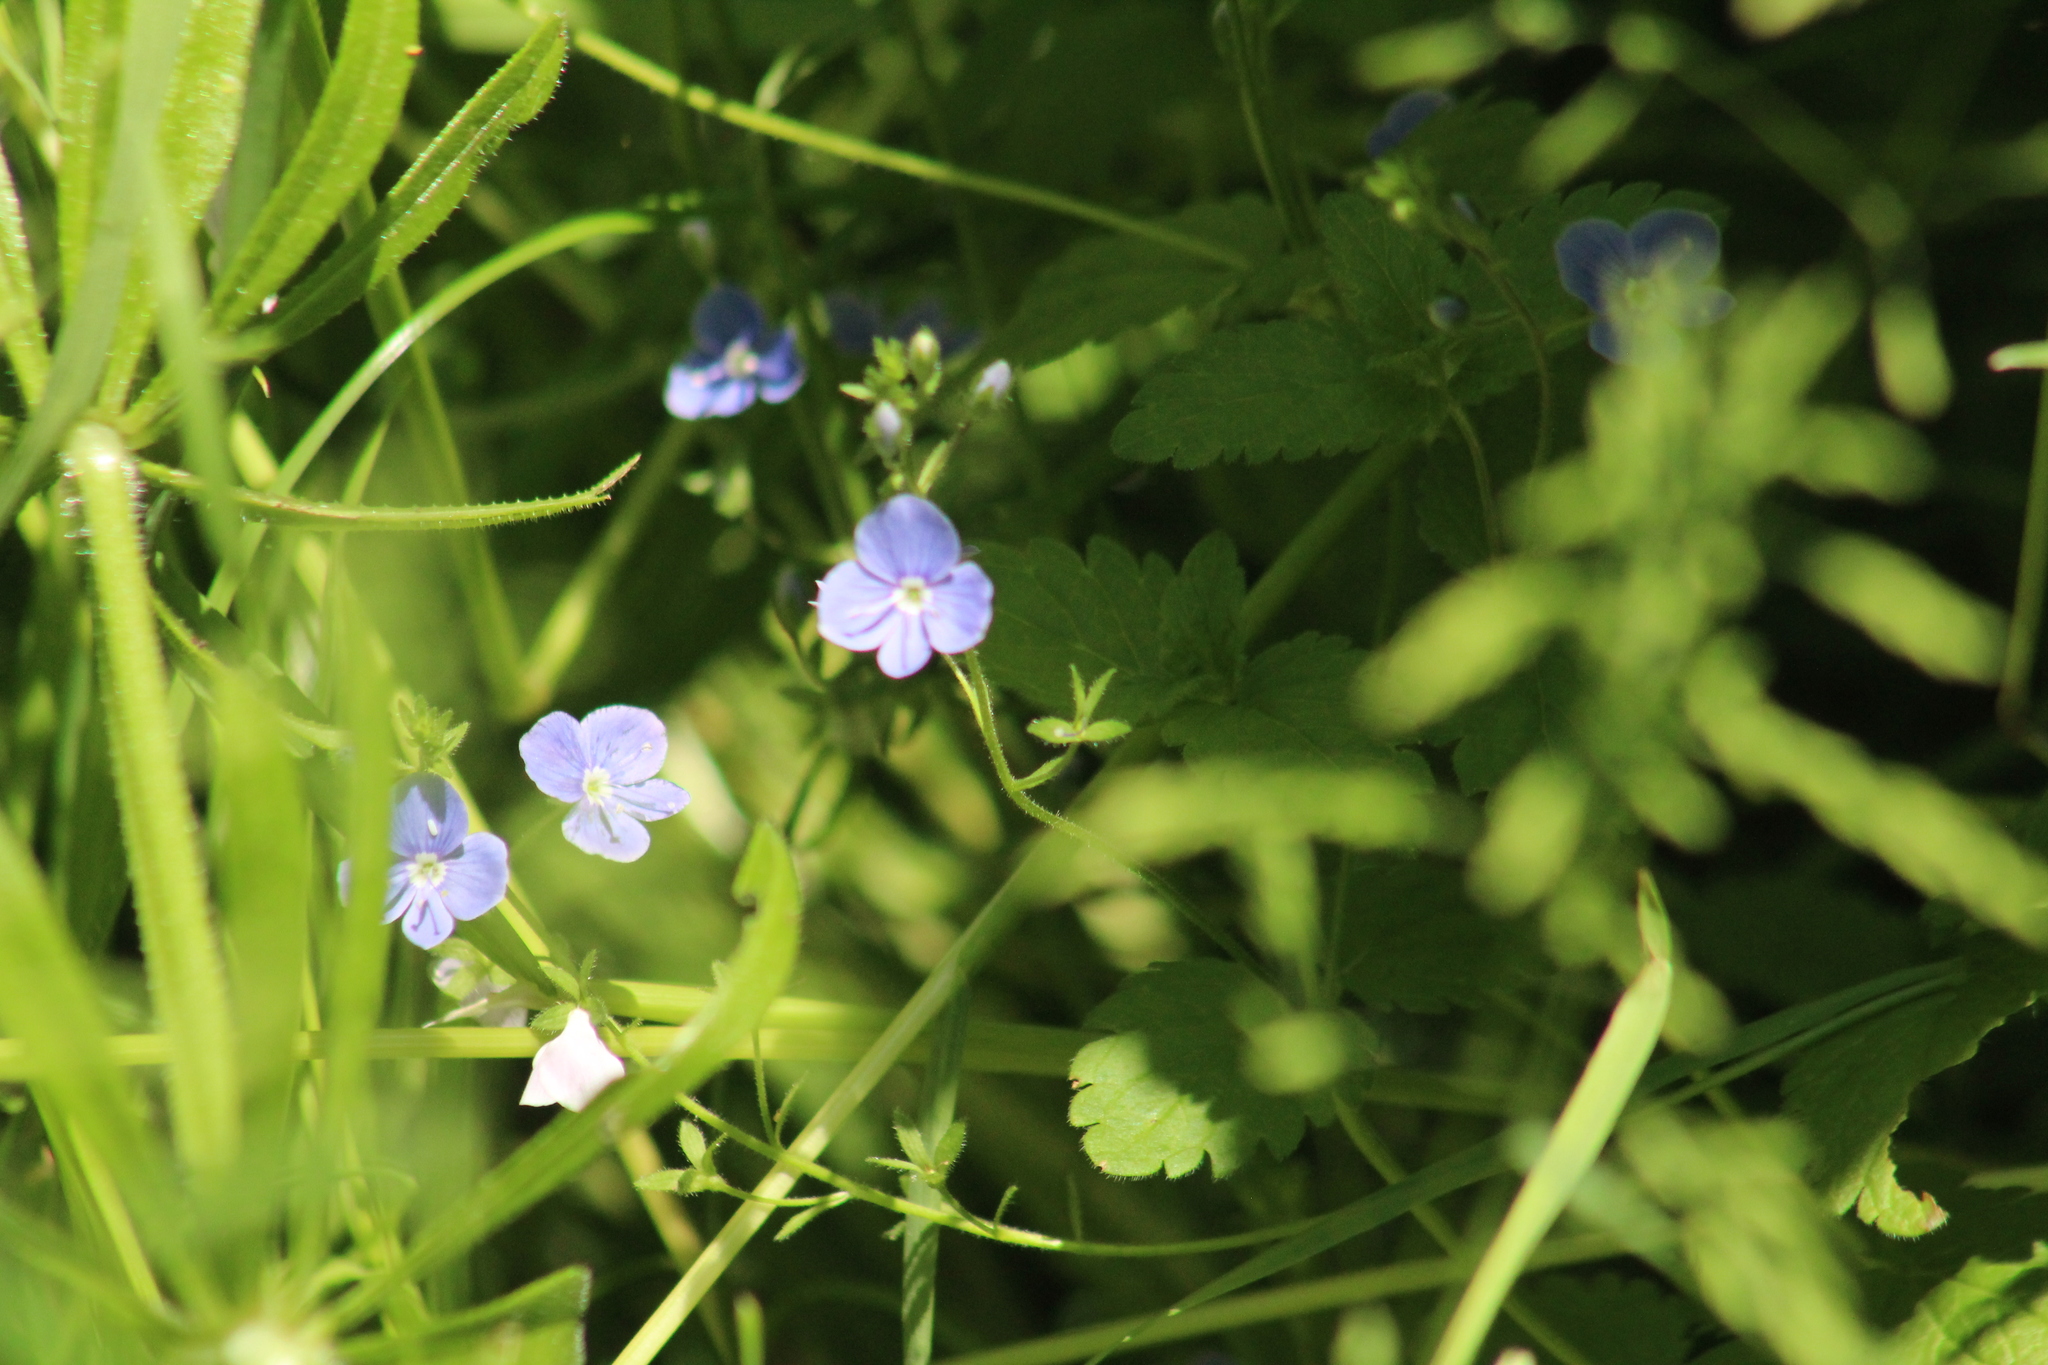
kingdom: Plantae
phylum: Tracheophyta
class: Magnoliopsida
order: Lamiales
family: Plantaginaceae
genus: Veronica
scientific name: Veronica chamaedrys
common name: Germander speedwell
